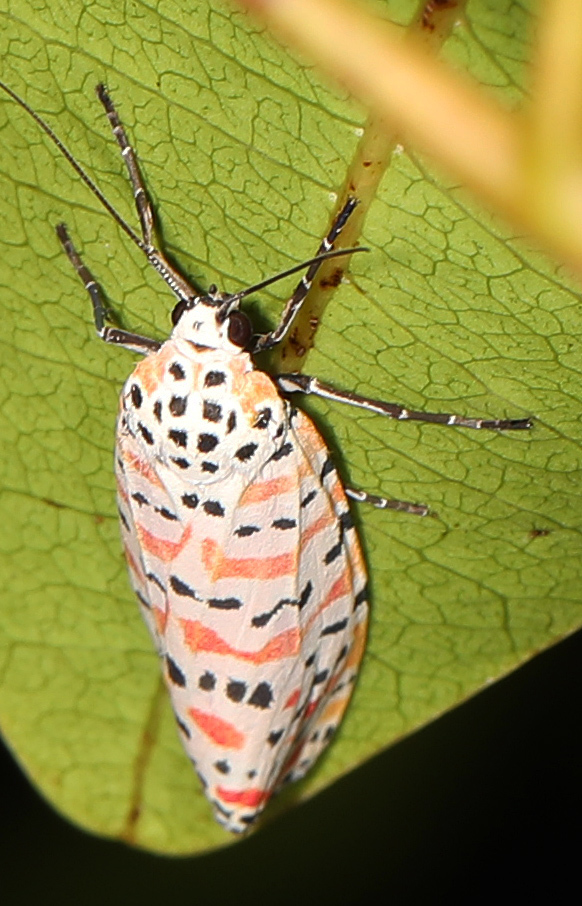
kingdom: Animalia
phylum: Arthropoda
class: Insecta
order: Lepidoptera
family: Erebidae
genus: Utetheisa
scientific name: Utetheisa ornatrix
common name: Beautiful utetheisa
